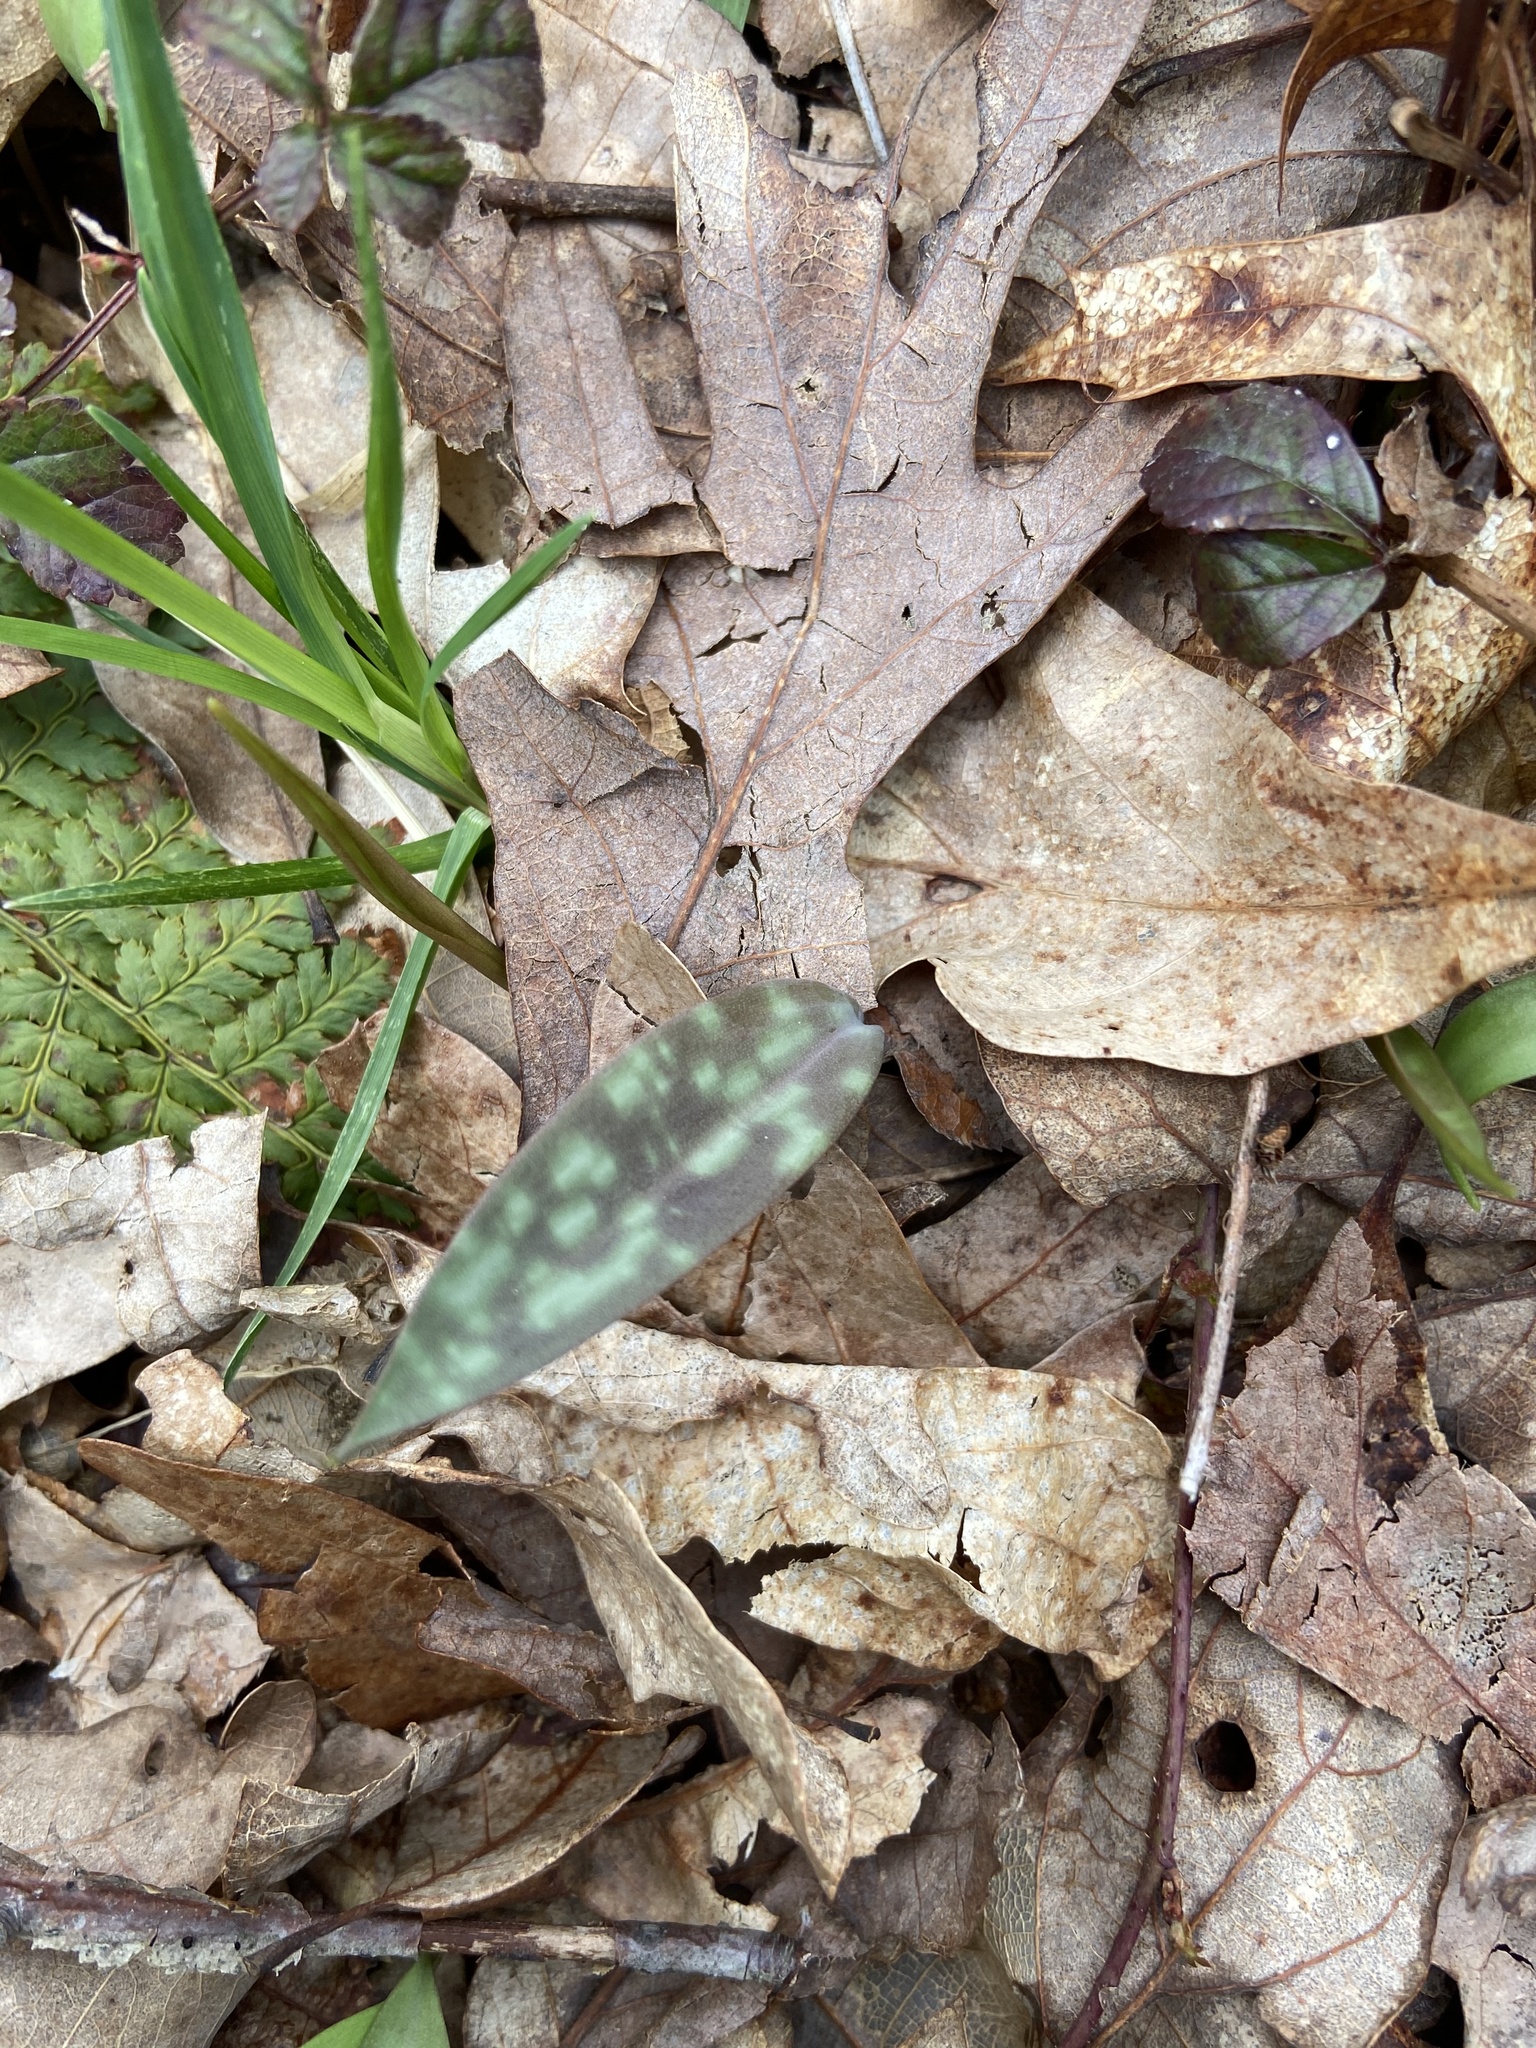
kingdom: Plantae
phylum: Tracheophyta
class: Liliopsida
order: Liliales
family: Liliaceae
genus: Erythronium
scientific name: Erythronium americanum
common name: Yellow adder's-tongue
